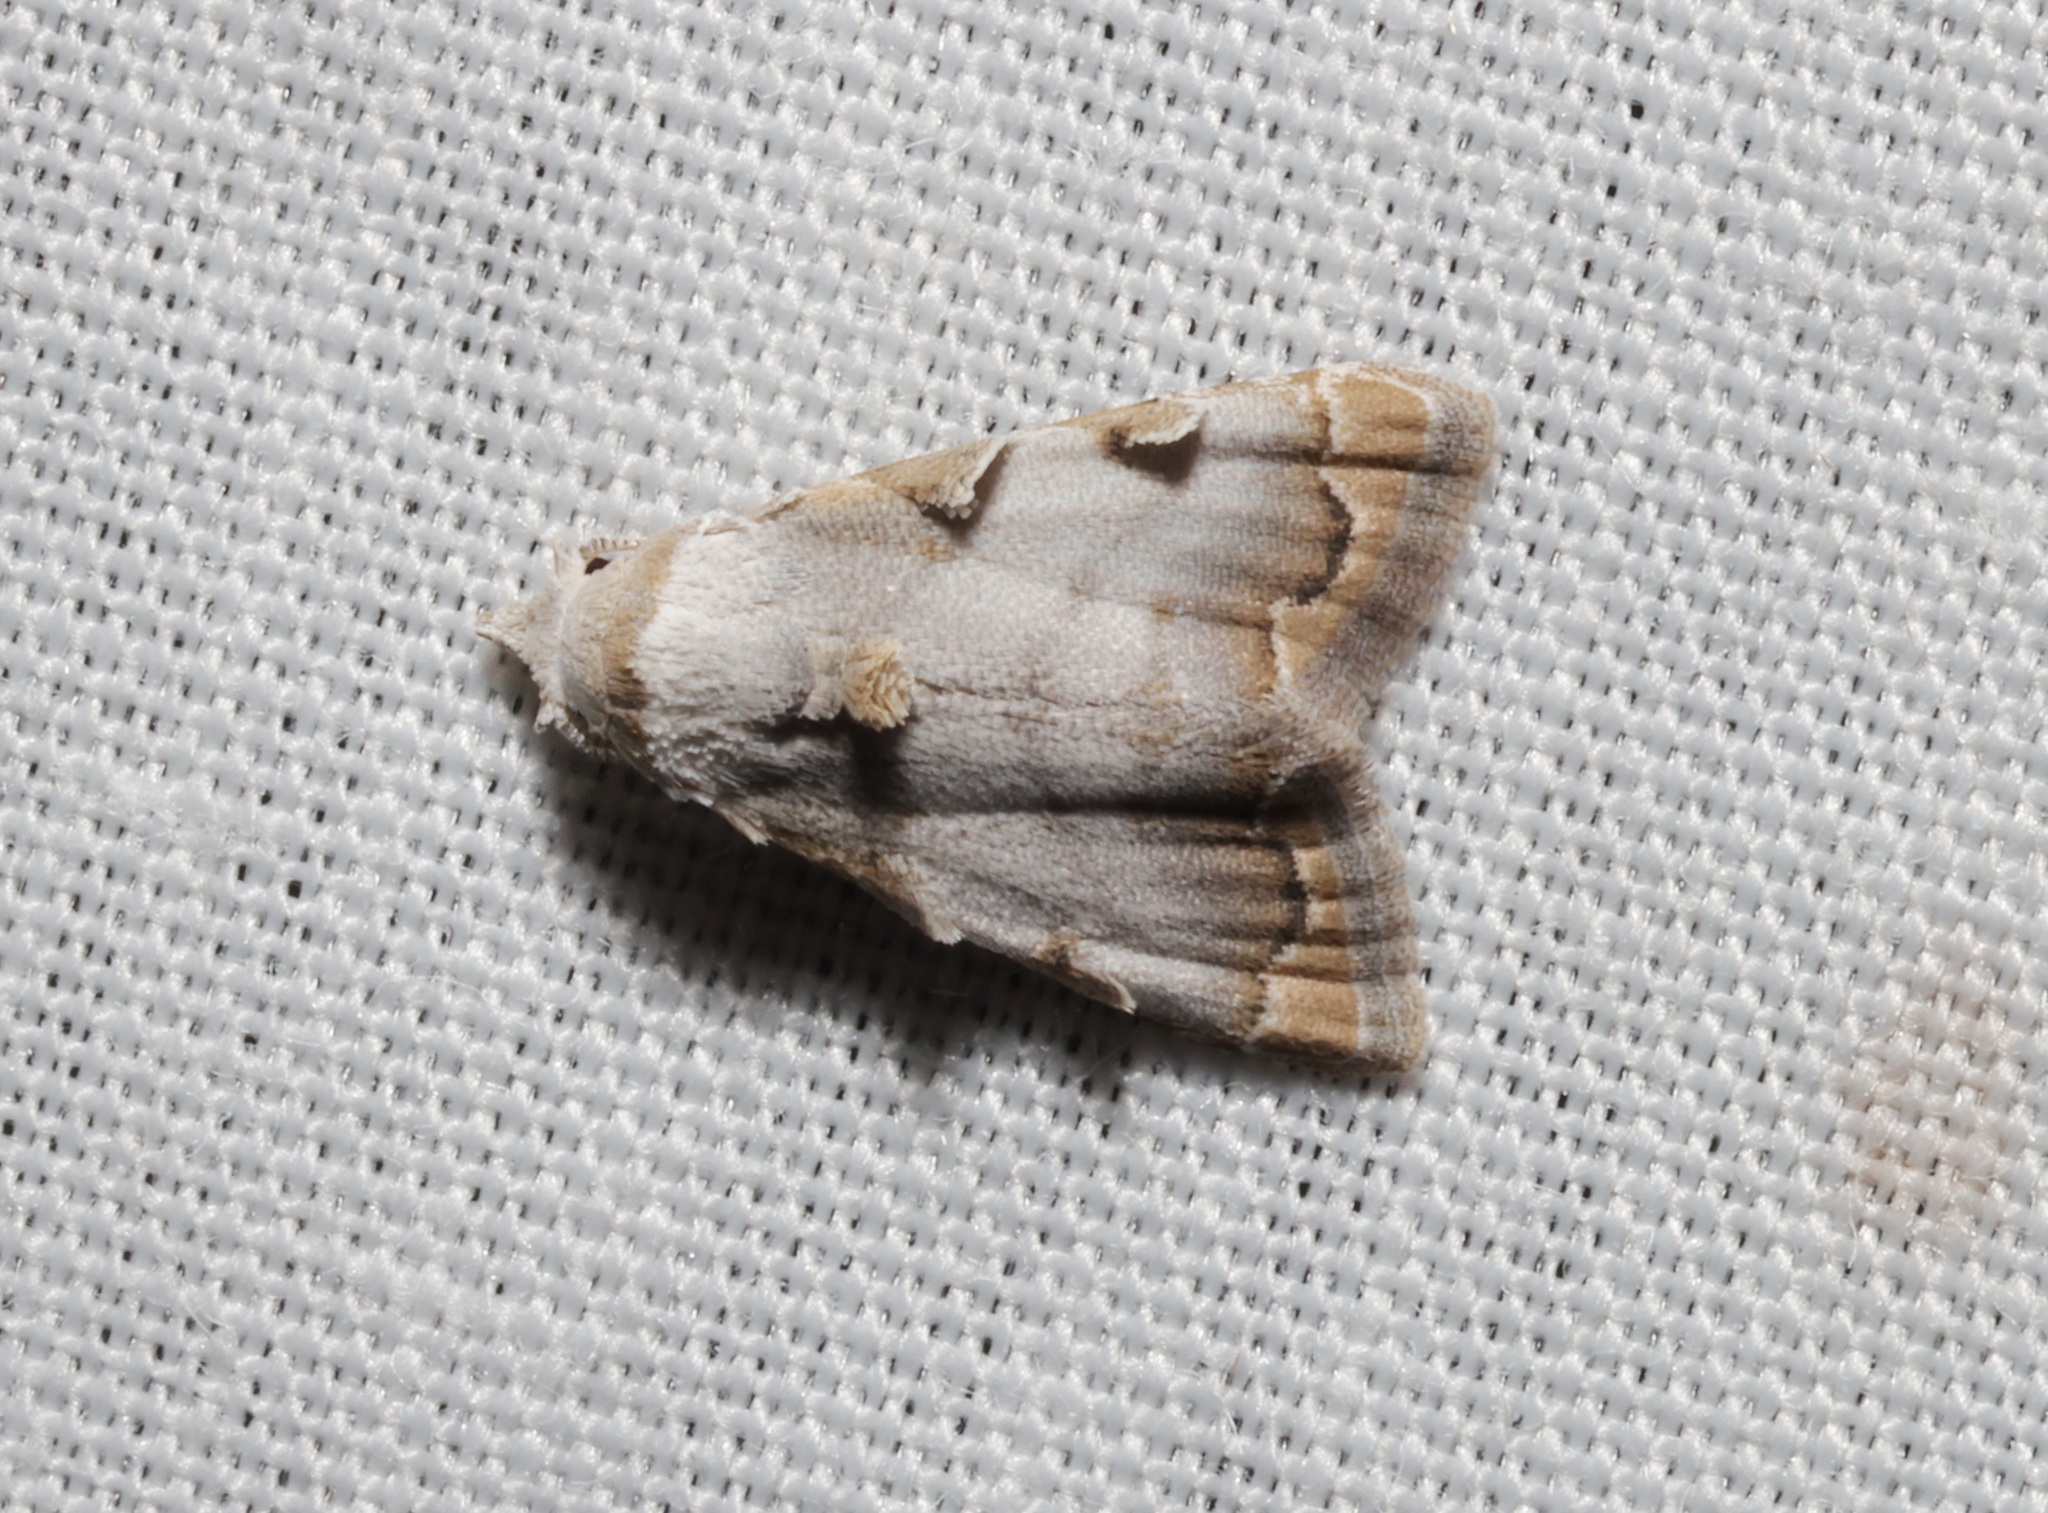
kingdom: Animalia
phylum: Arthropoda
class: Insecta
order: Lepidoptera
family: Nolidae
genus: Nola
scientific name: Nola marginata
